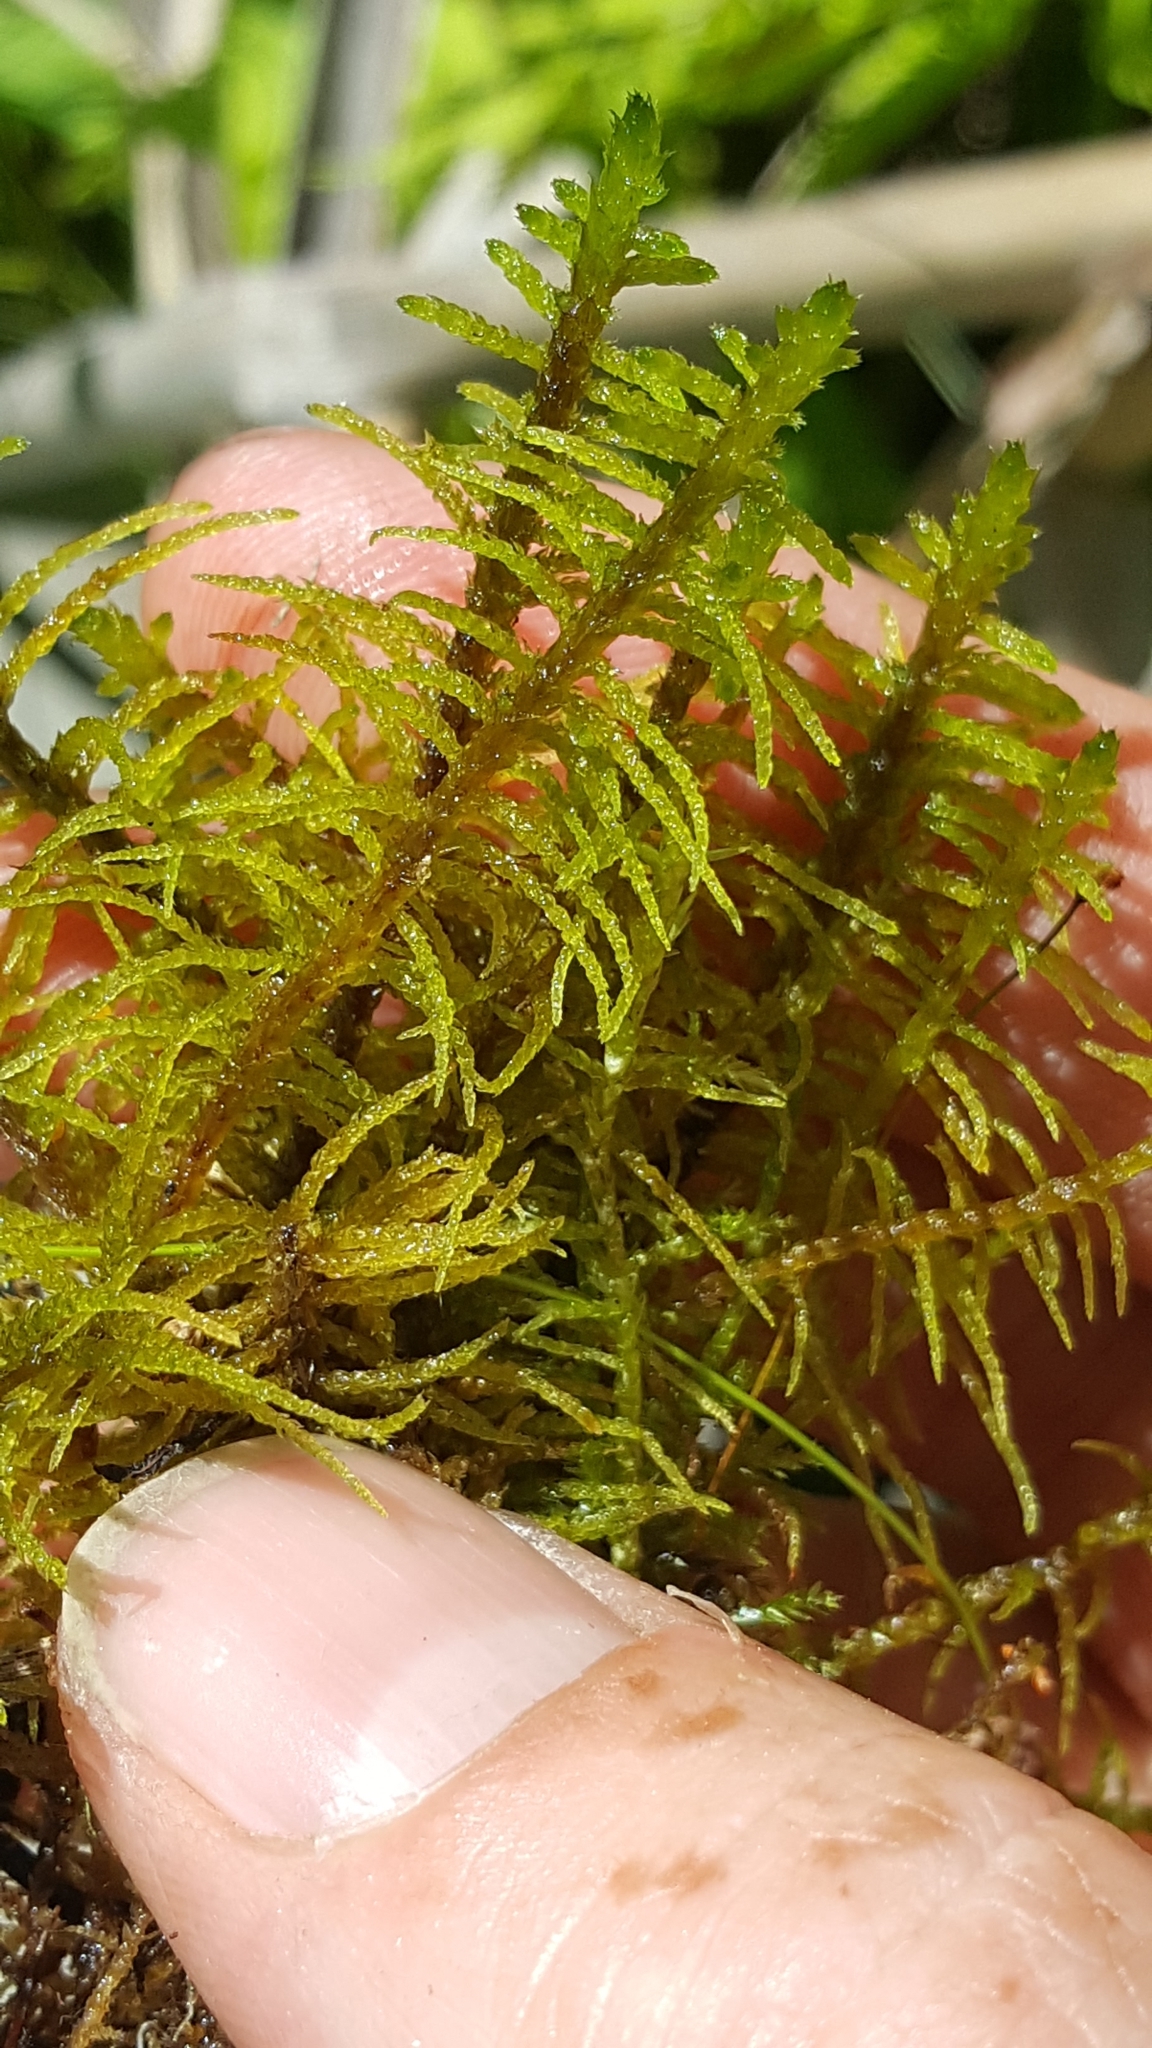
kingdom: Plantae
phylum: Bryophyta
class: Bryopsida
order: Hypnales
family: Helodiaceae
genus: Helodium
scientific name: Helodium blandowii
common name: Blandow's tamarisk-moss
